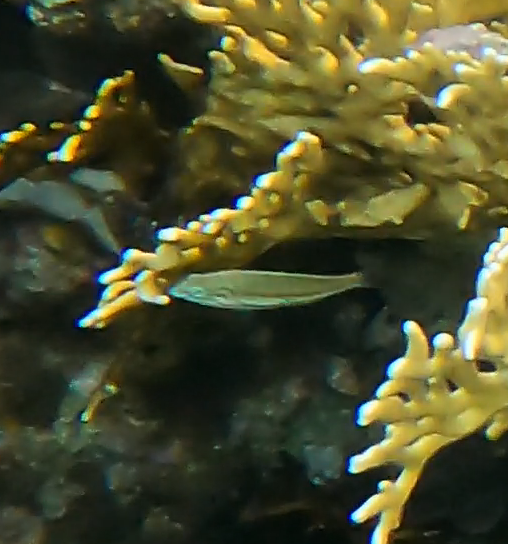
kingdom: Animalia
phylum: Chordata
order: Perciformes
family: Labridae
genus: Thalassoma
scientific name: Thalassoma rueppellii
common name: Klunzinger's wrasse
